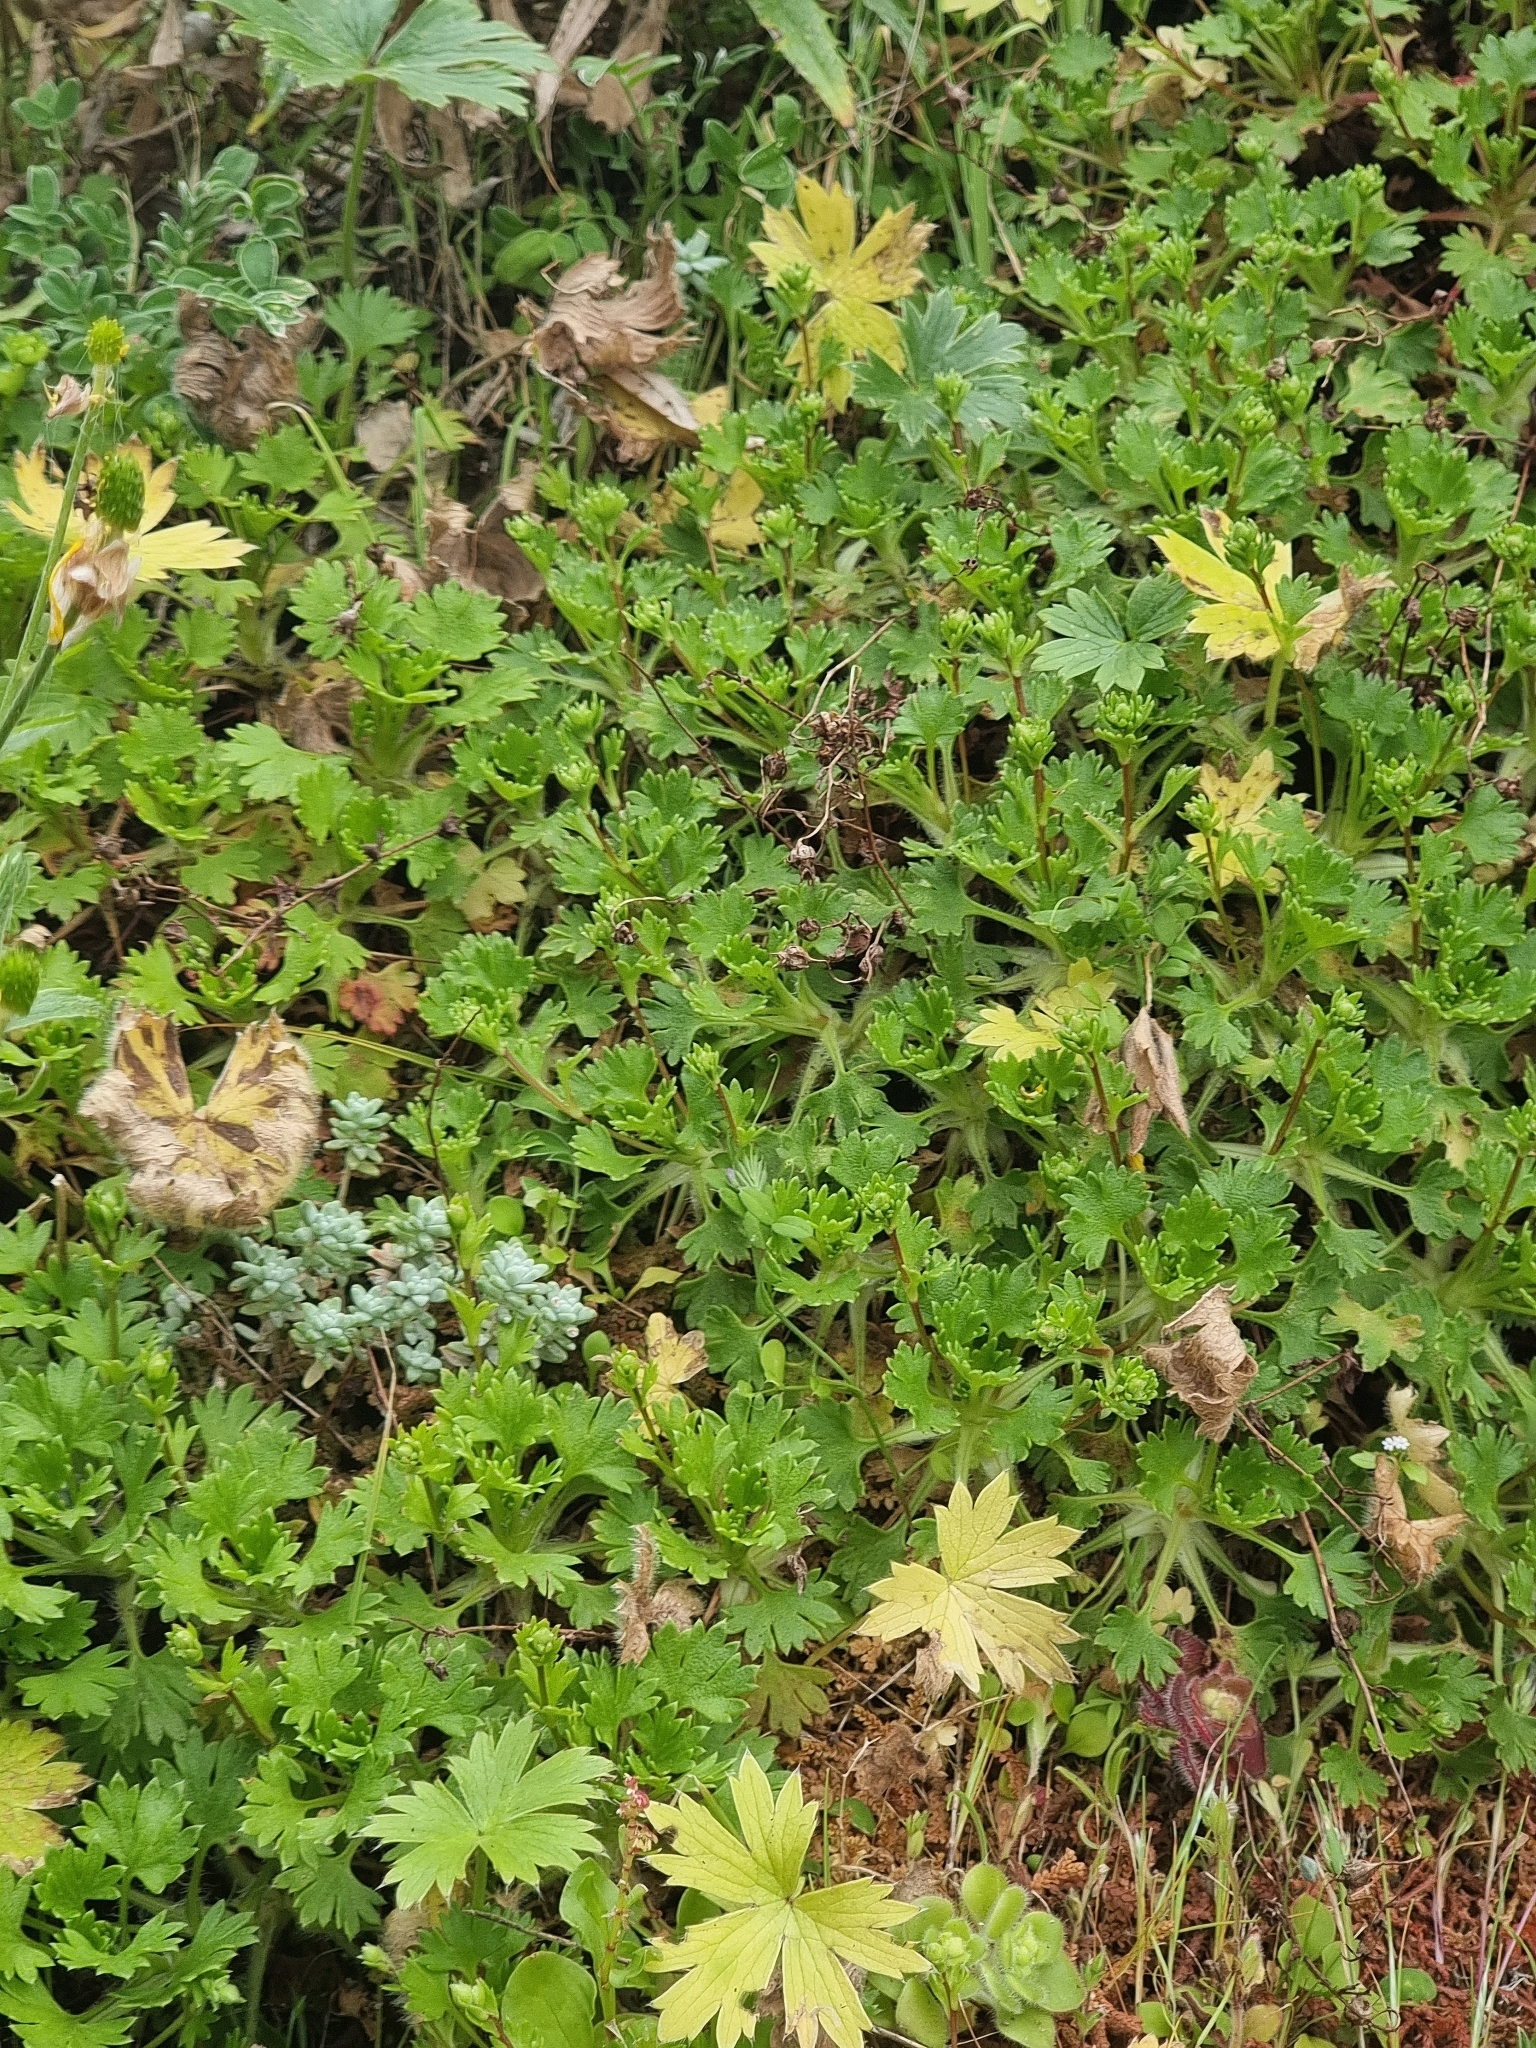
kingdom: Plantae
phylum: Tracheophyta
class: Magnoliopsida
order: Saxifragales
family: Saxifragaceae
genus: Saxifraga
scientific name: Saxifraga maderensis
